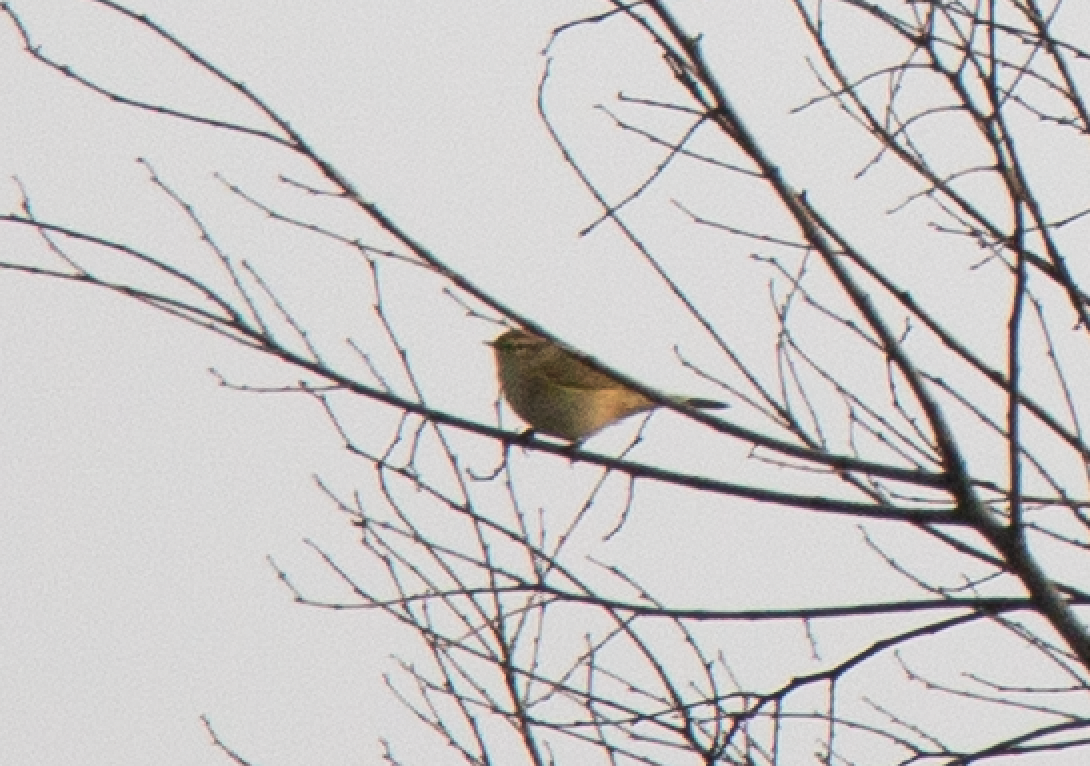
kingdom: Animalia
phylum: Chordata
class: Aves
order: Passeriformes
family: Phylloscopidae
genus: Phylloscopus
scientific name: Phylloscopus collybita
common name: Common chiffchaff
